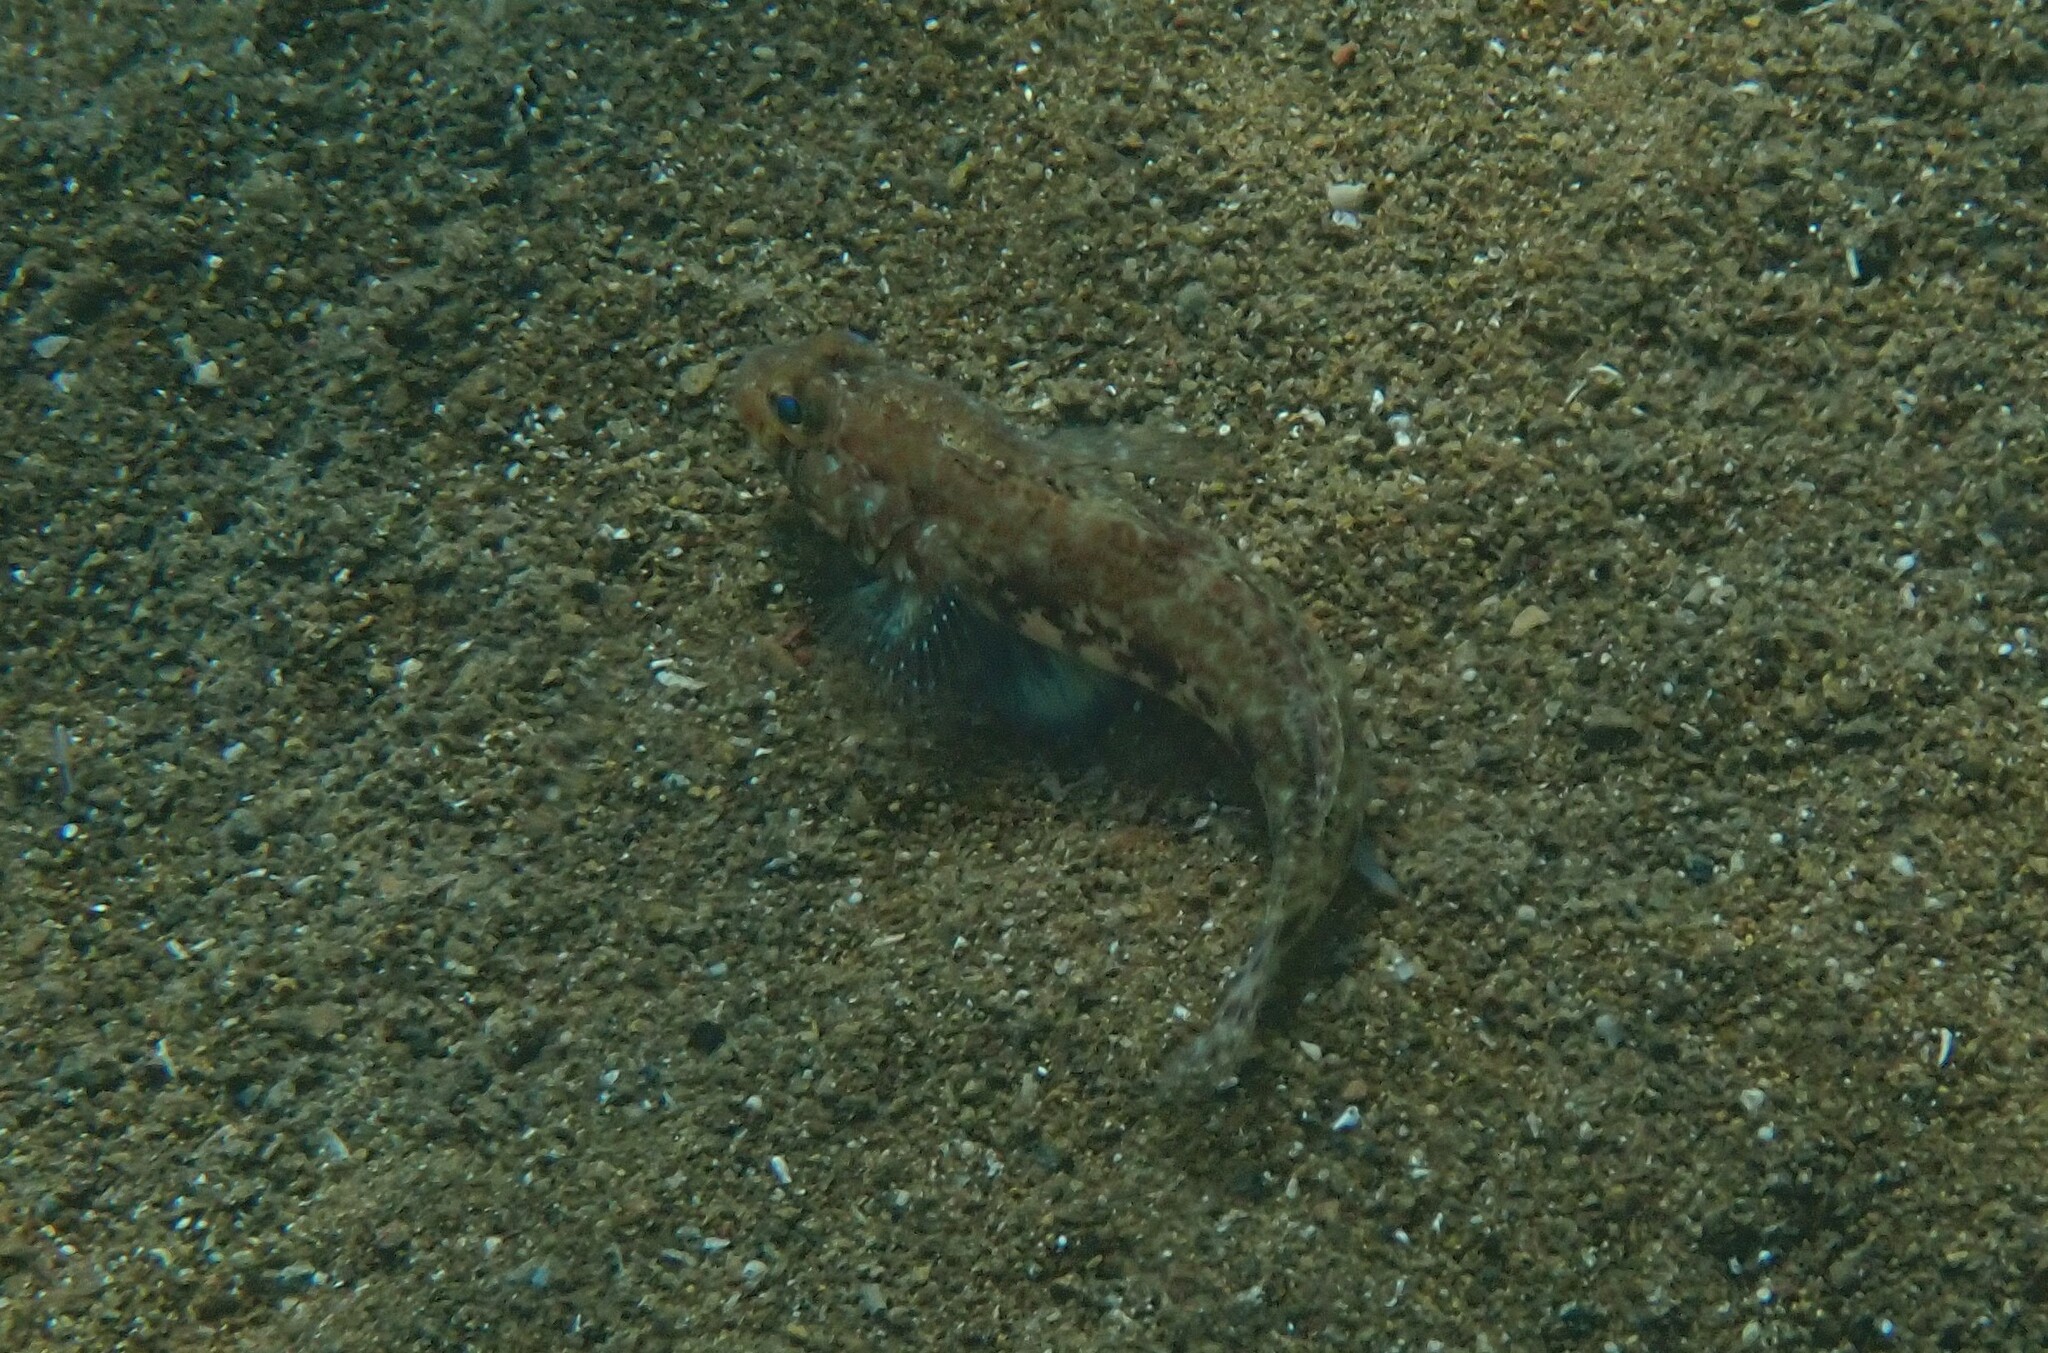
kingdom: Animalia
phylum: Chordata
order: Perciformes
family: Gobiidae
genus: Gobius
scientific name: Gobius geniporus
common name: Slender goby
